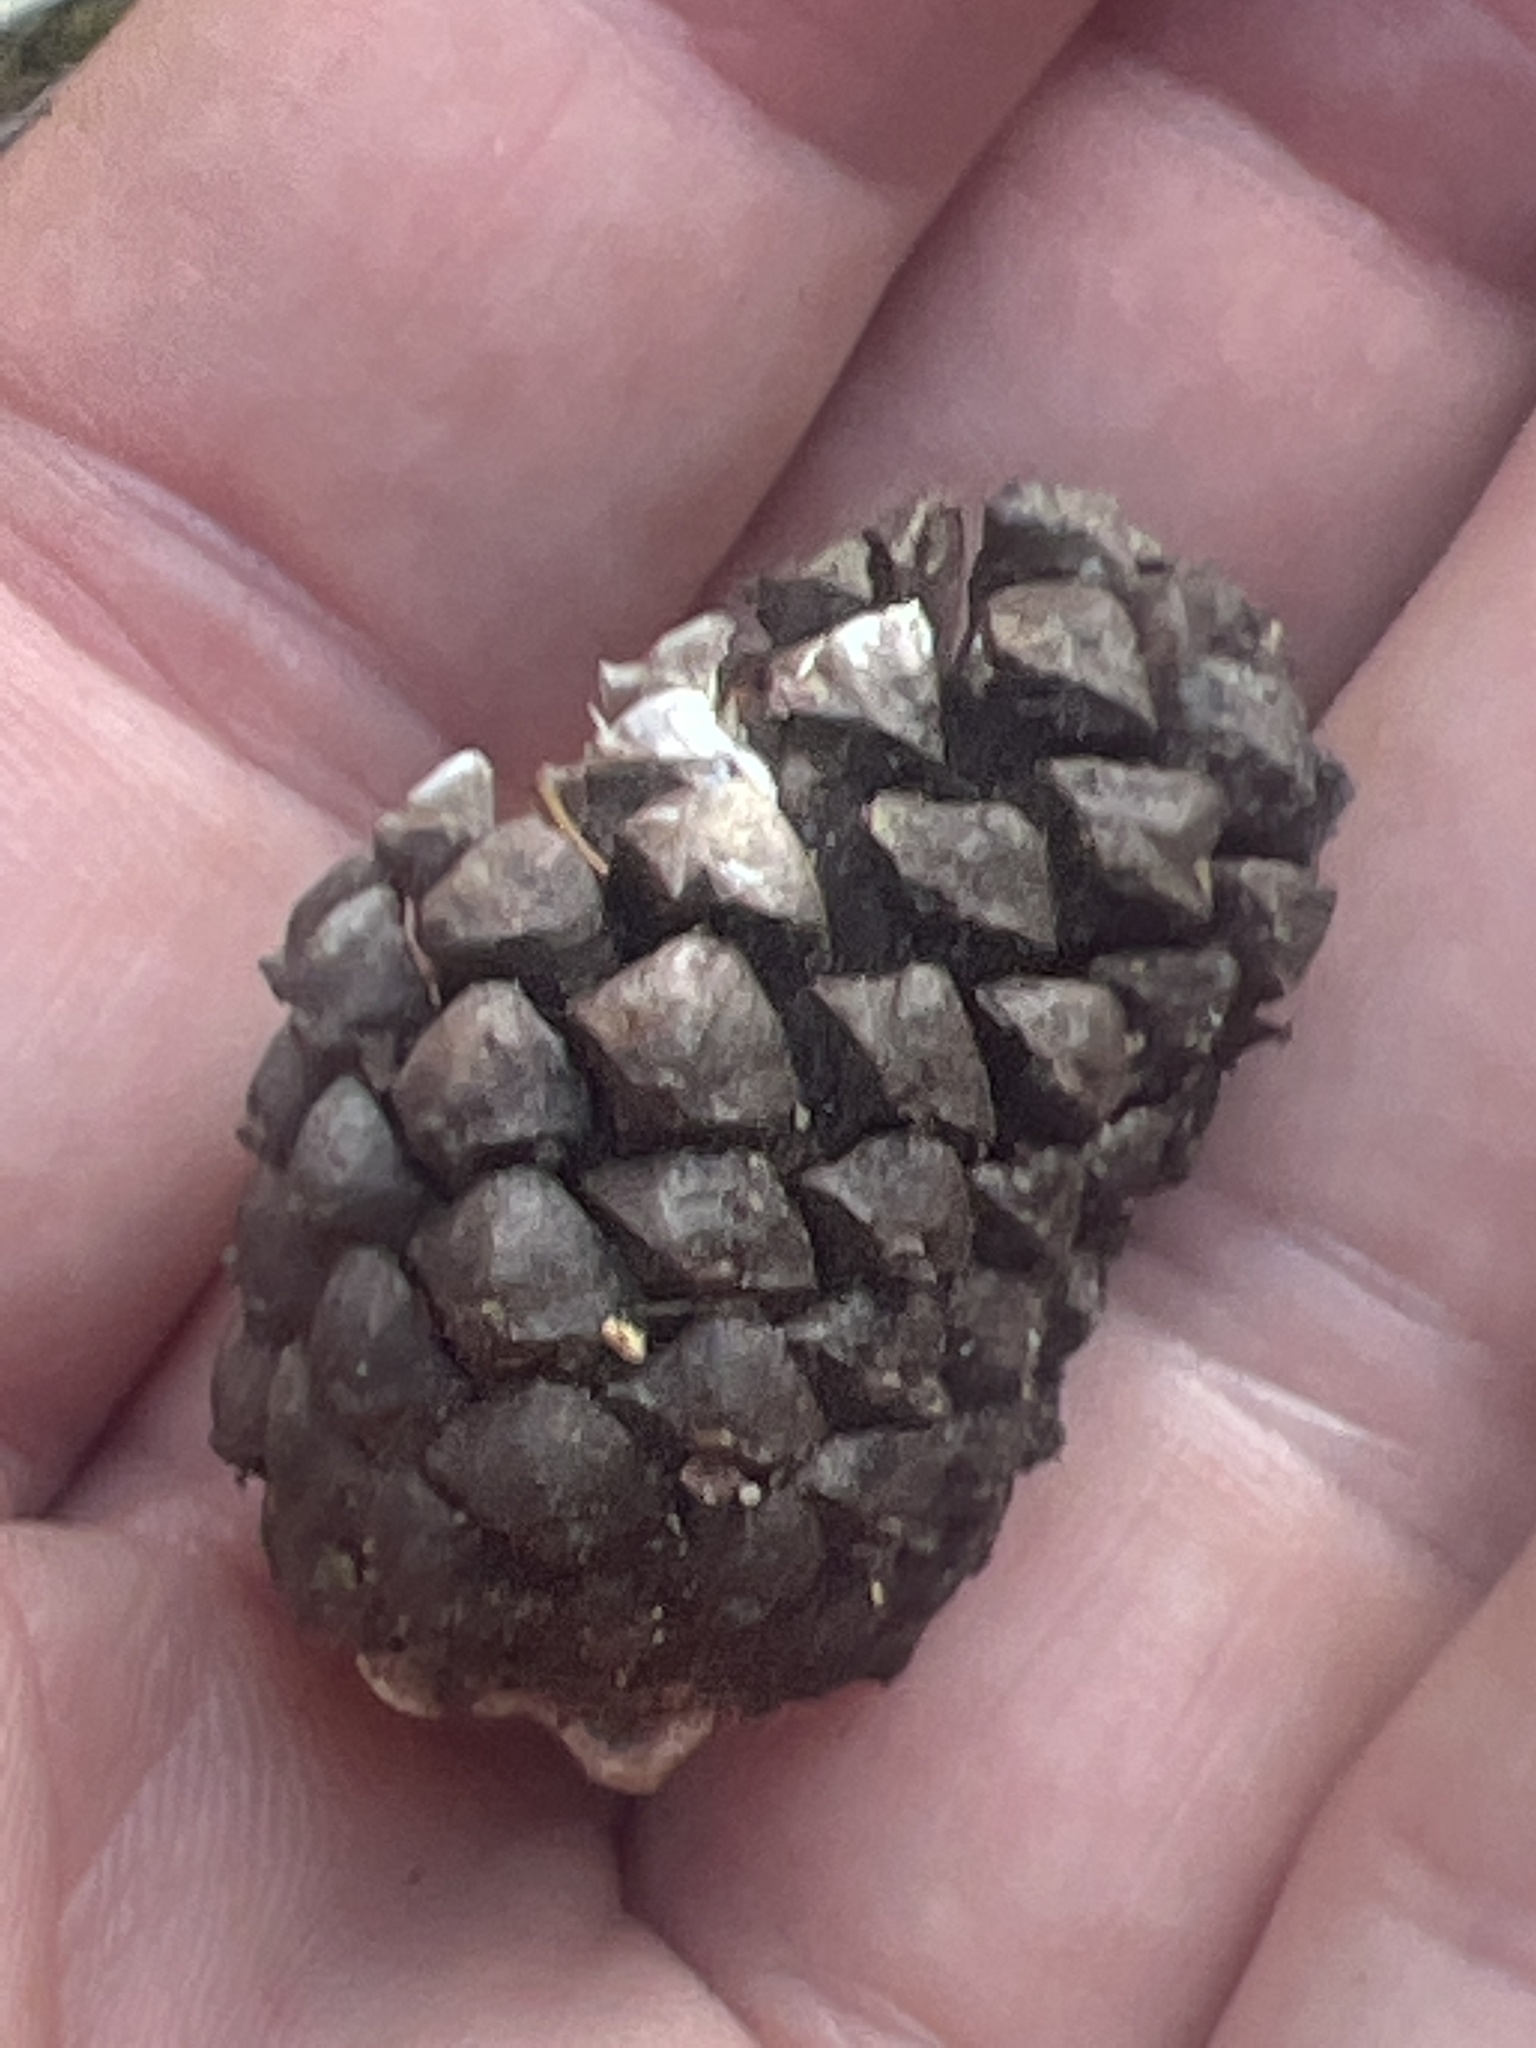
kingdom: Plantae
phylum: Tracheophyta
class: Pinopsida
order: Pinales
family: Pinaceae
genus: Pinus
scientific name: Pinus contorta
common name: Lodgepole pine
